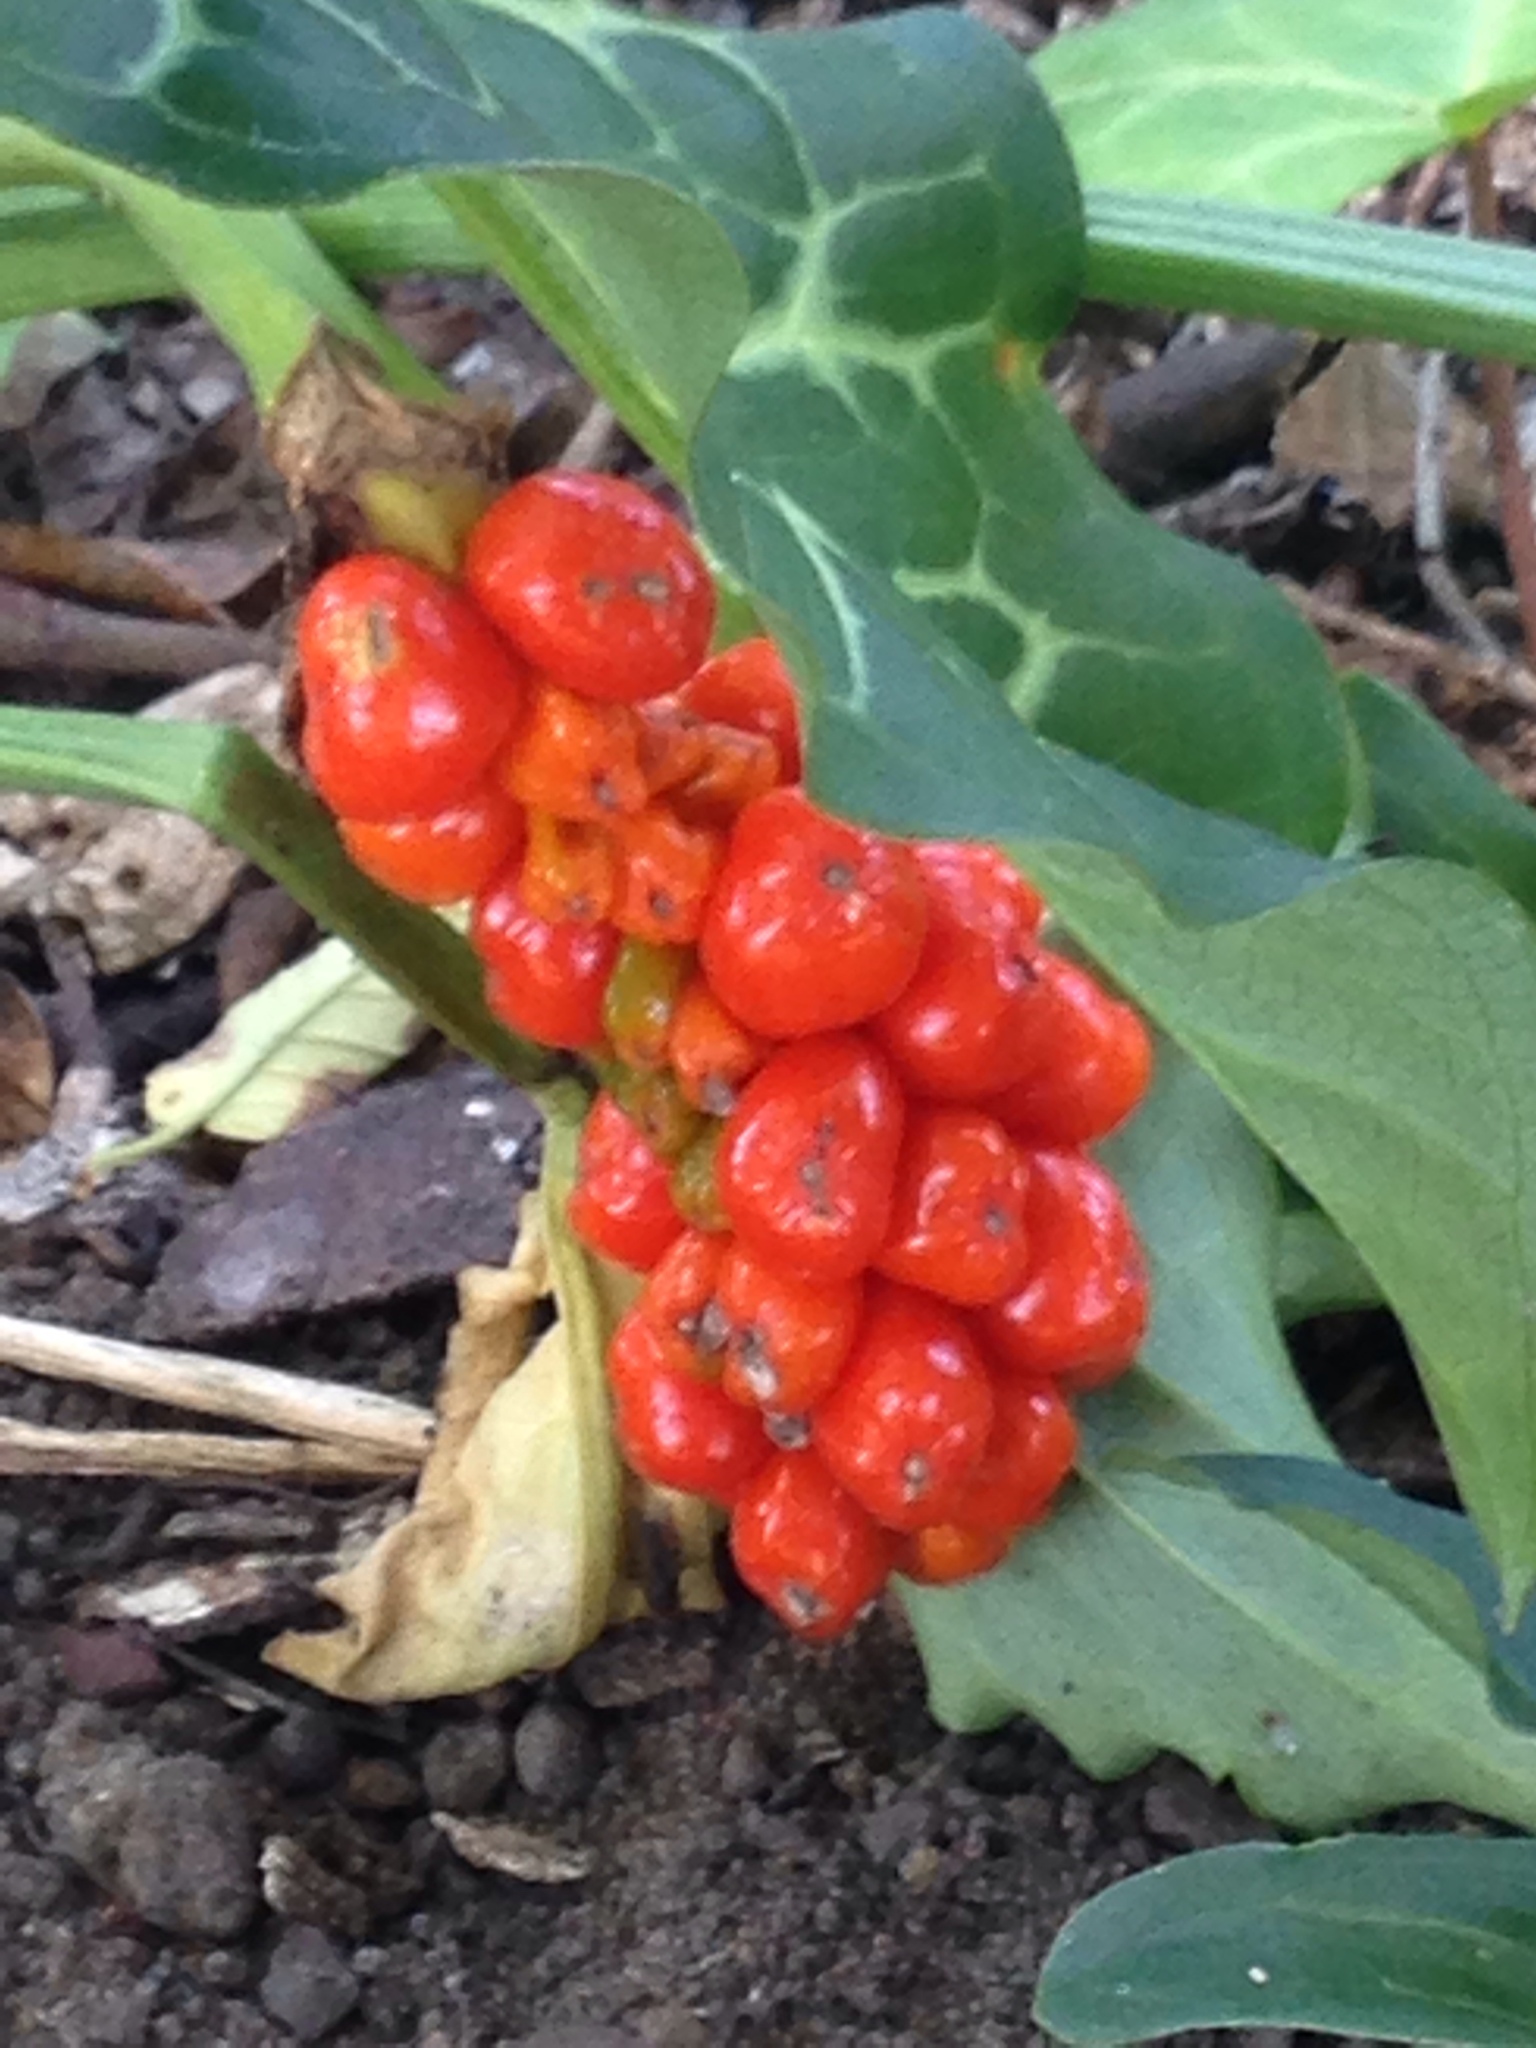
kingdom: Plantae
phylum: Tracheophyta
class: Liliopsida
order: Alismatales
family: Araceae
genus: Arum
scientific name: Arum italicum
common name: Italian lords-and-ladies
